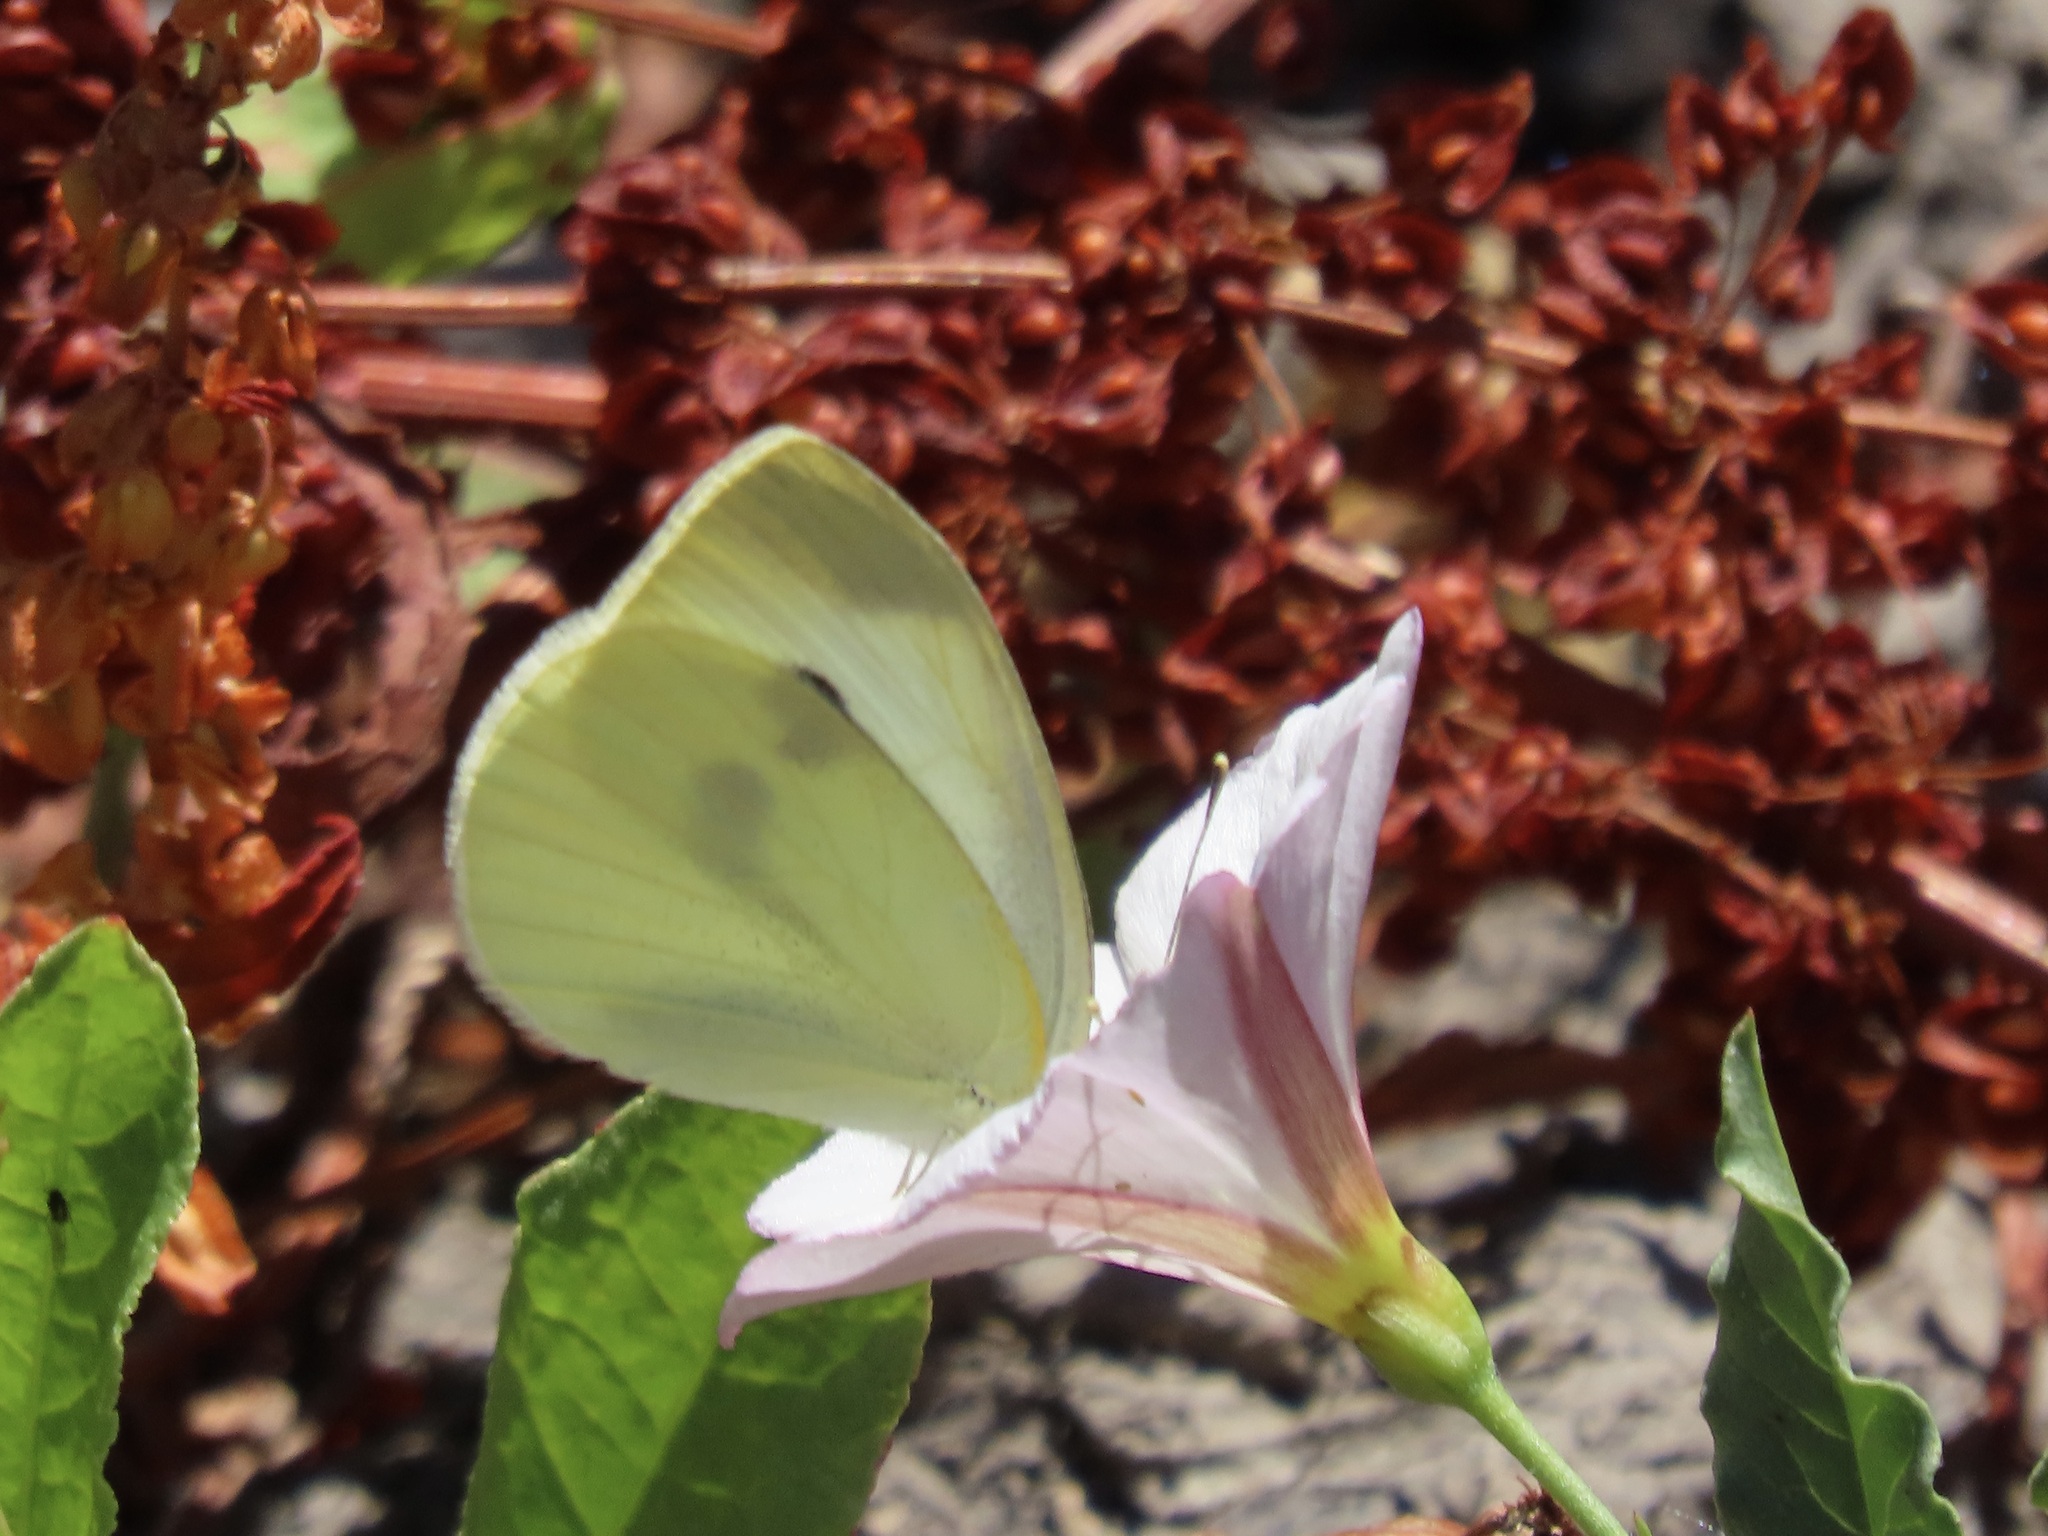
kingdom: Animalia
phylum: Arthropoda
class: Insecta
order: Lepidoptera
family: Pieridae
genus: Pieris
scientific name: Pieris rapae
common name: Small white
